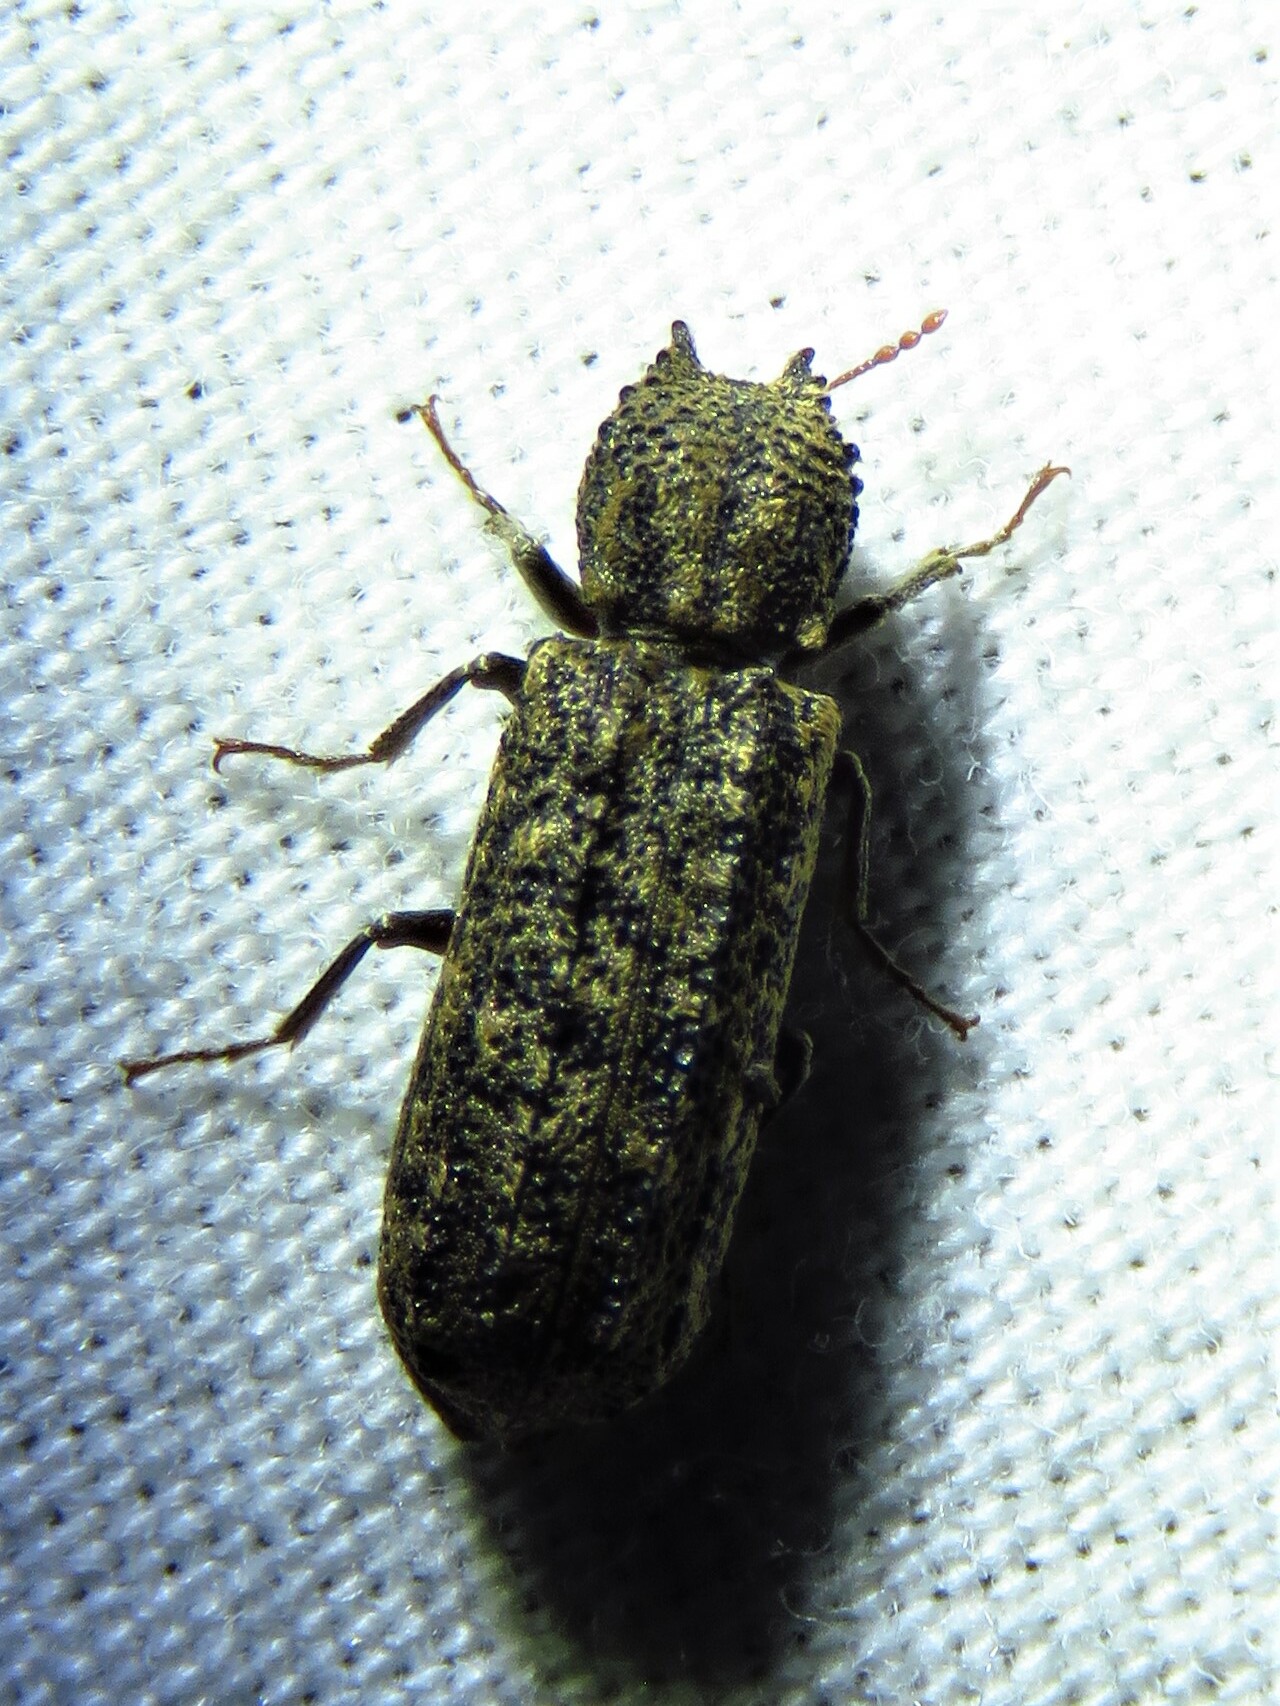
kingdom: Animalia
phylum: Arthropoda
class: Insecta
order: Coleoptera
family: Bostrichidae
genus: Lichenophanes
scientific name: Lichenophanes bicornis
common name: Two-horned powder-post beetle
